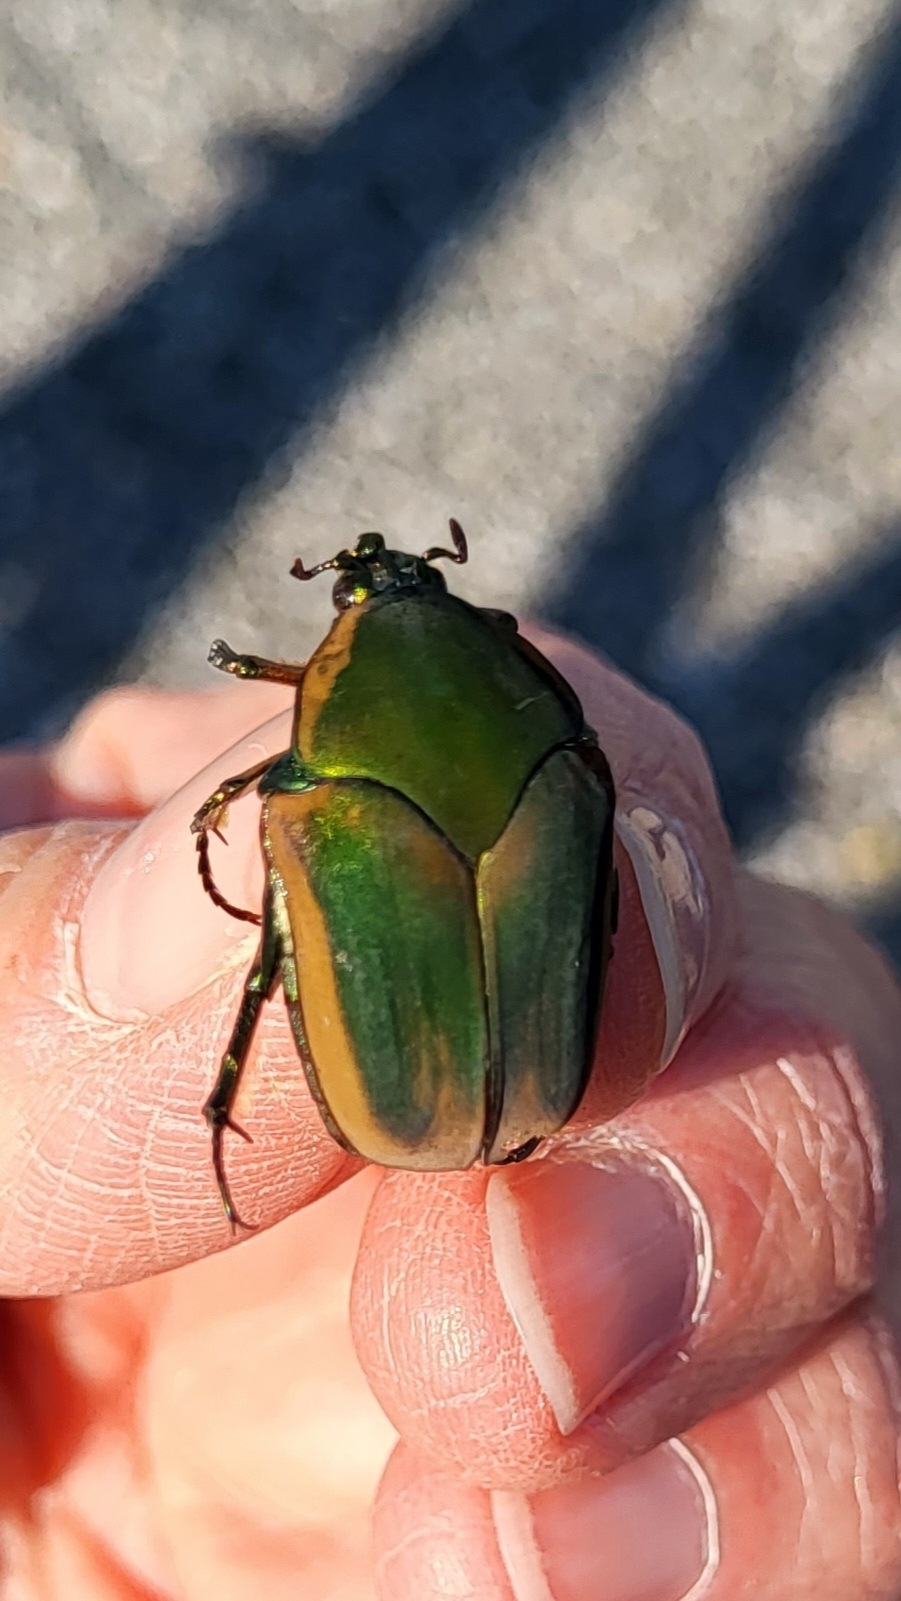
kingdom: Animalia
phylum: Arthropoda
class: Insecta
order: Coleoptera
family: Scarabaeidae
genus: Cotinis
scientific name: Cotinis nitida
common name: Common green june beetle
